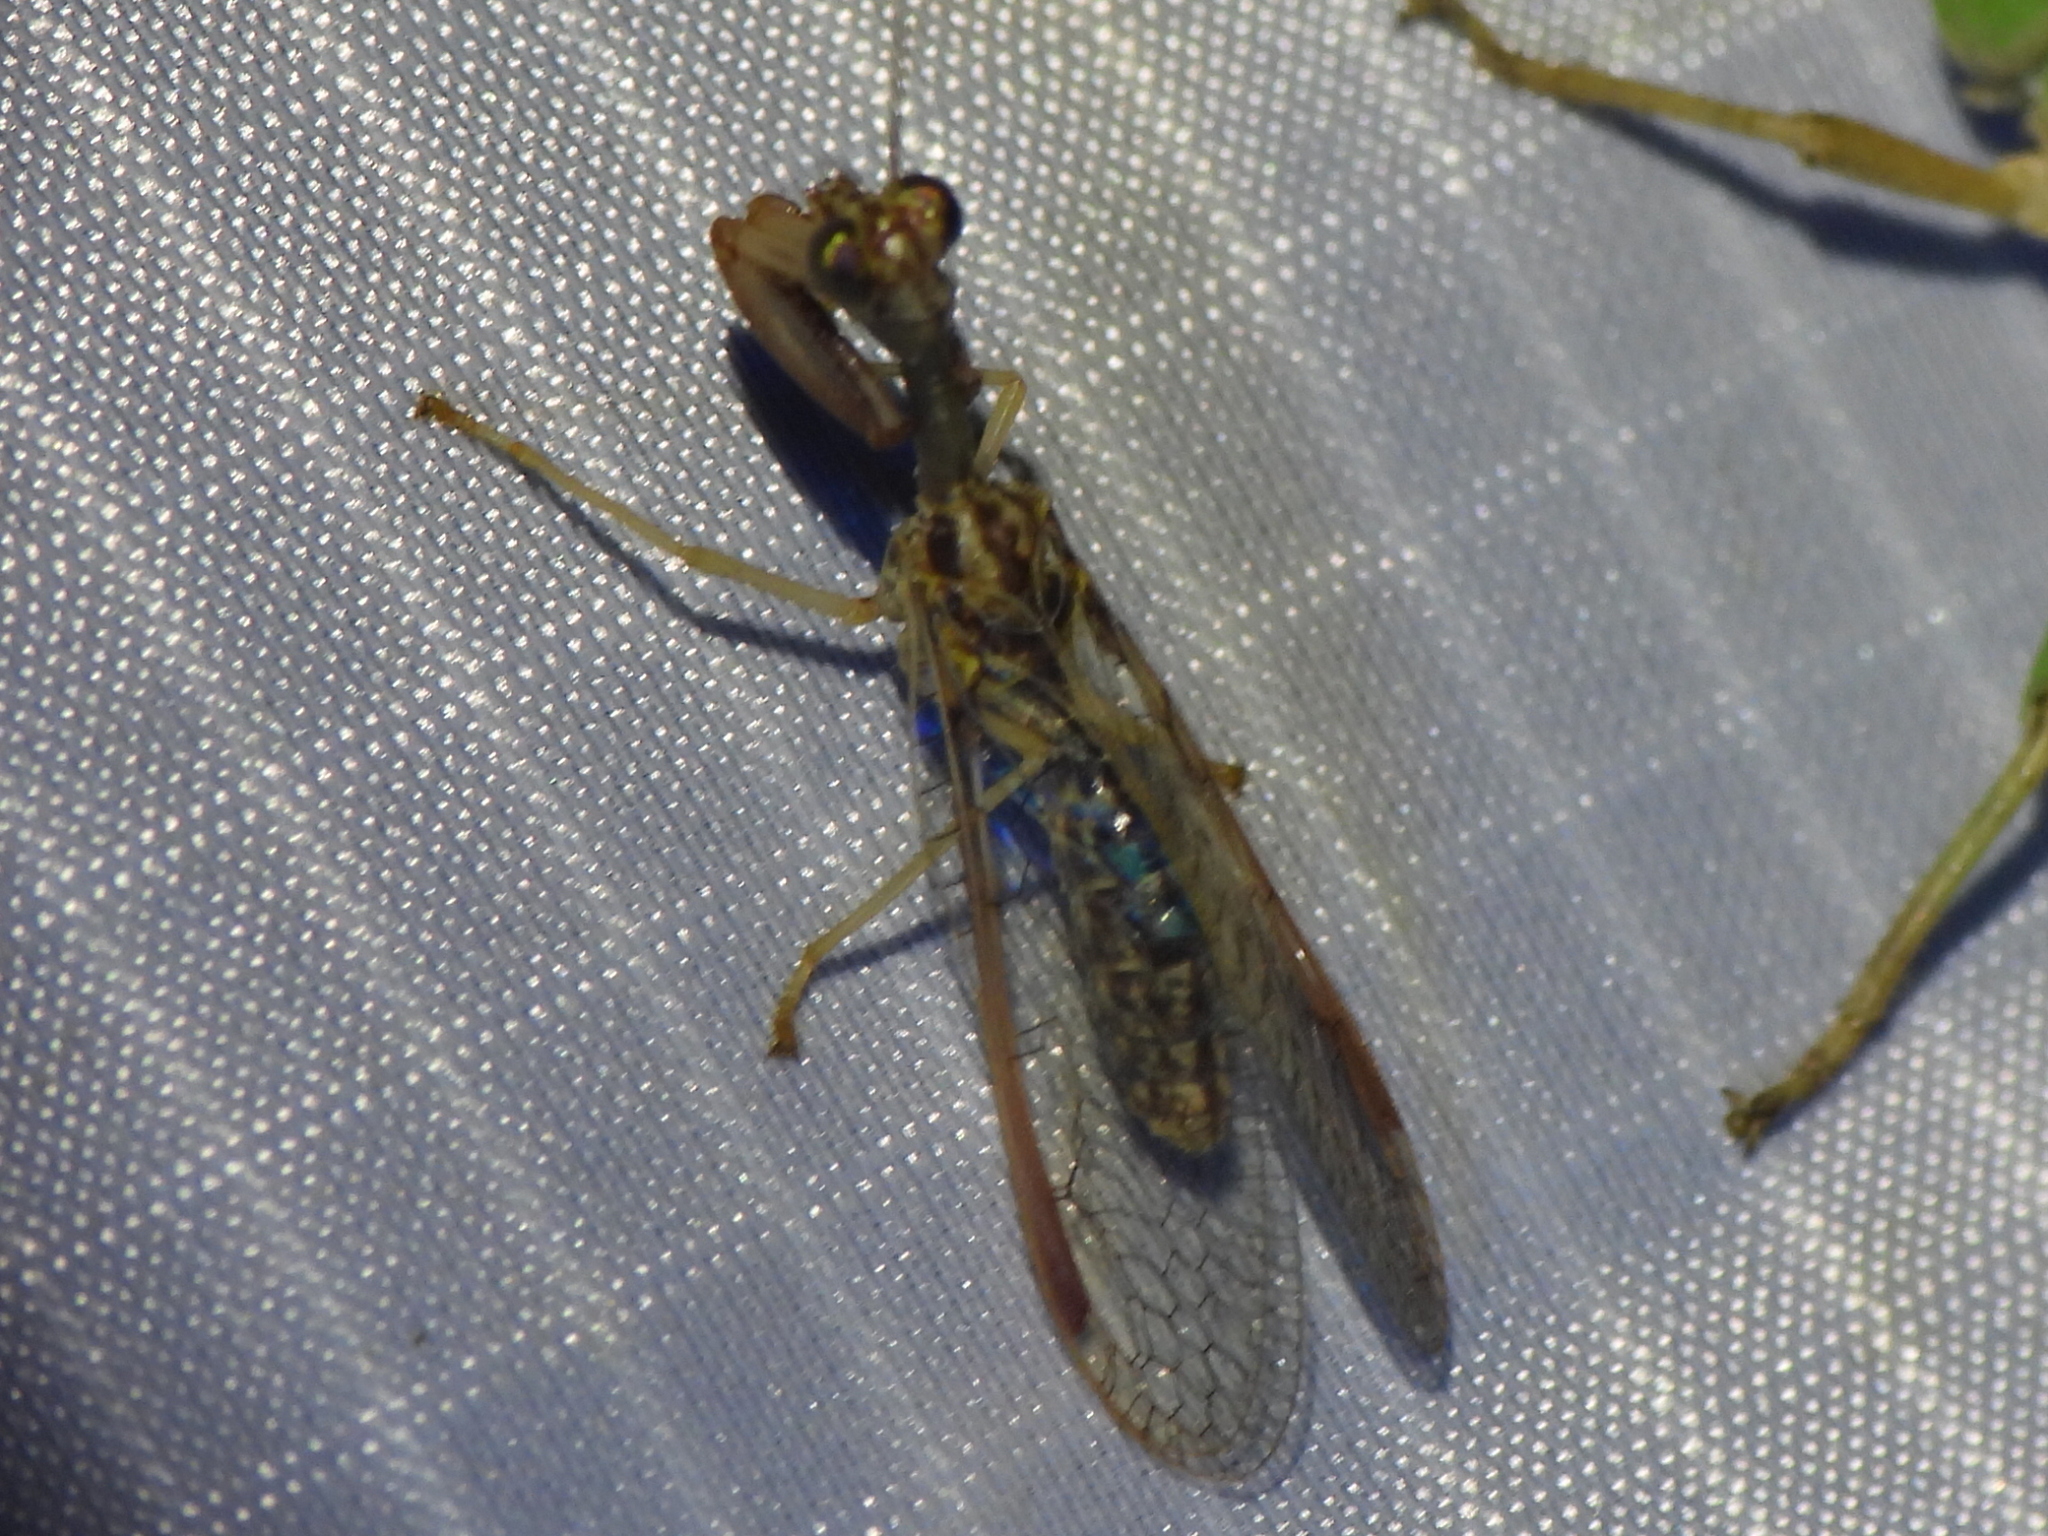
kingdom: Animalia
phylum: Arthropoda
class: Insecta
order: Neuroptera
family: Mantispidae
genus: Dicromantispa
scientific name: Dicromantispa sayi
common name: Say's mantidfly
